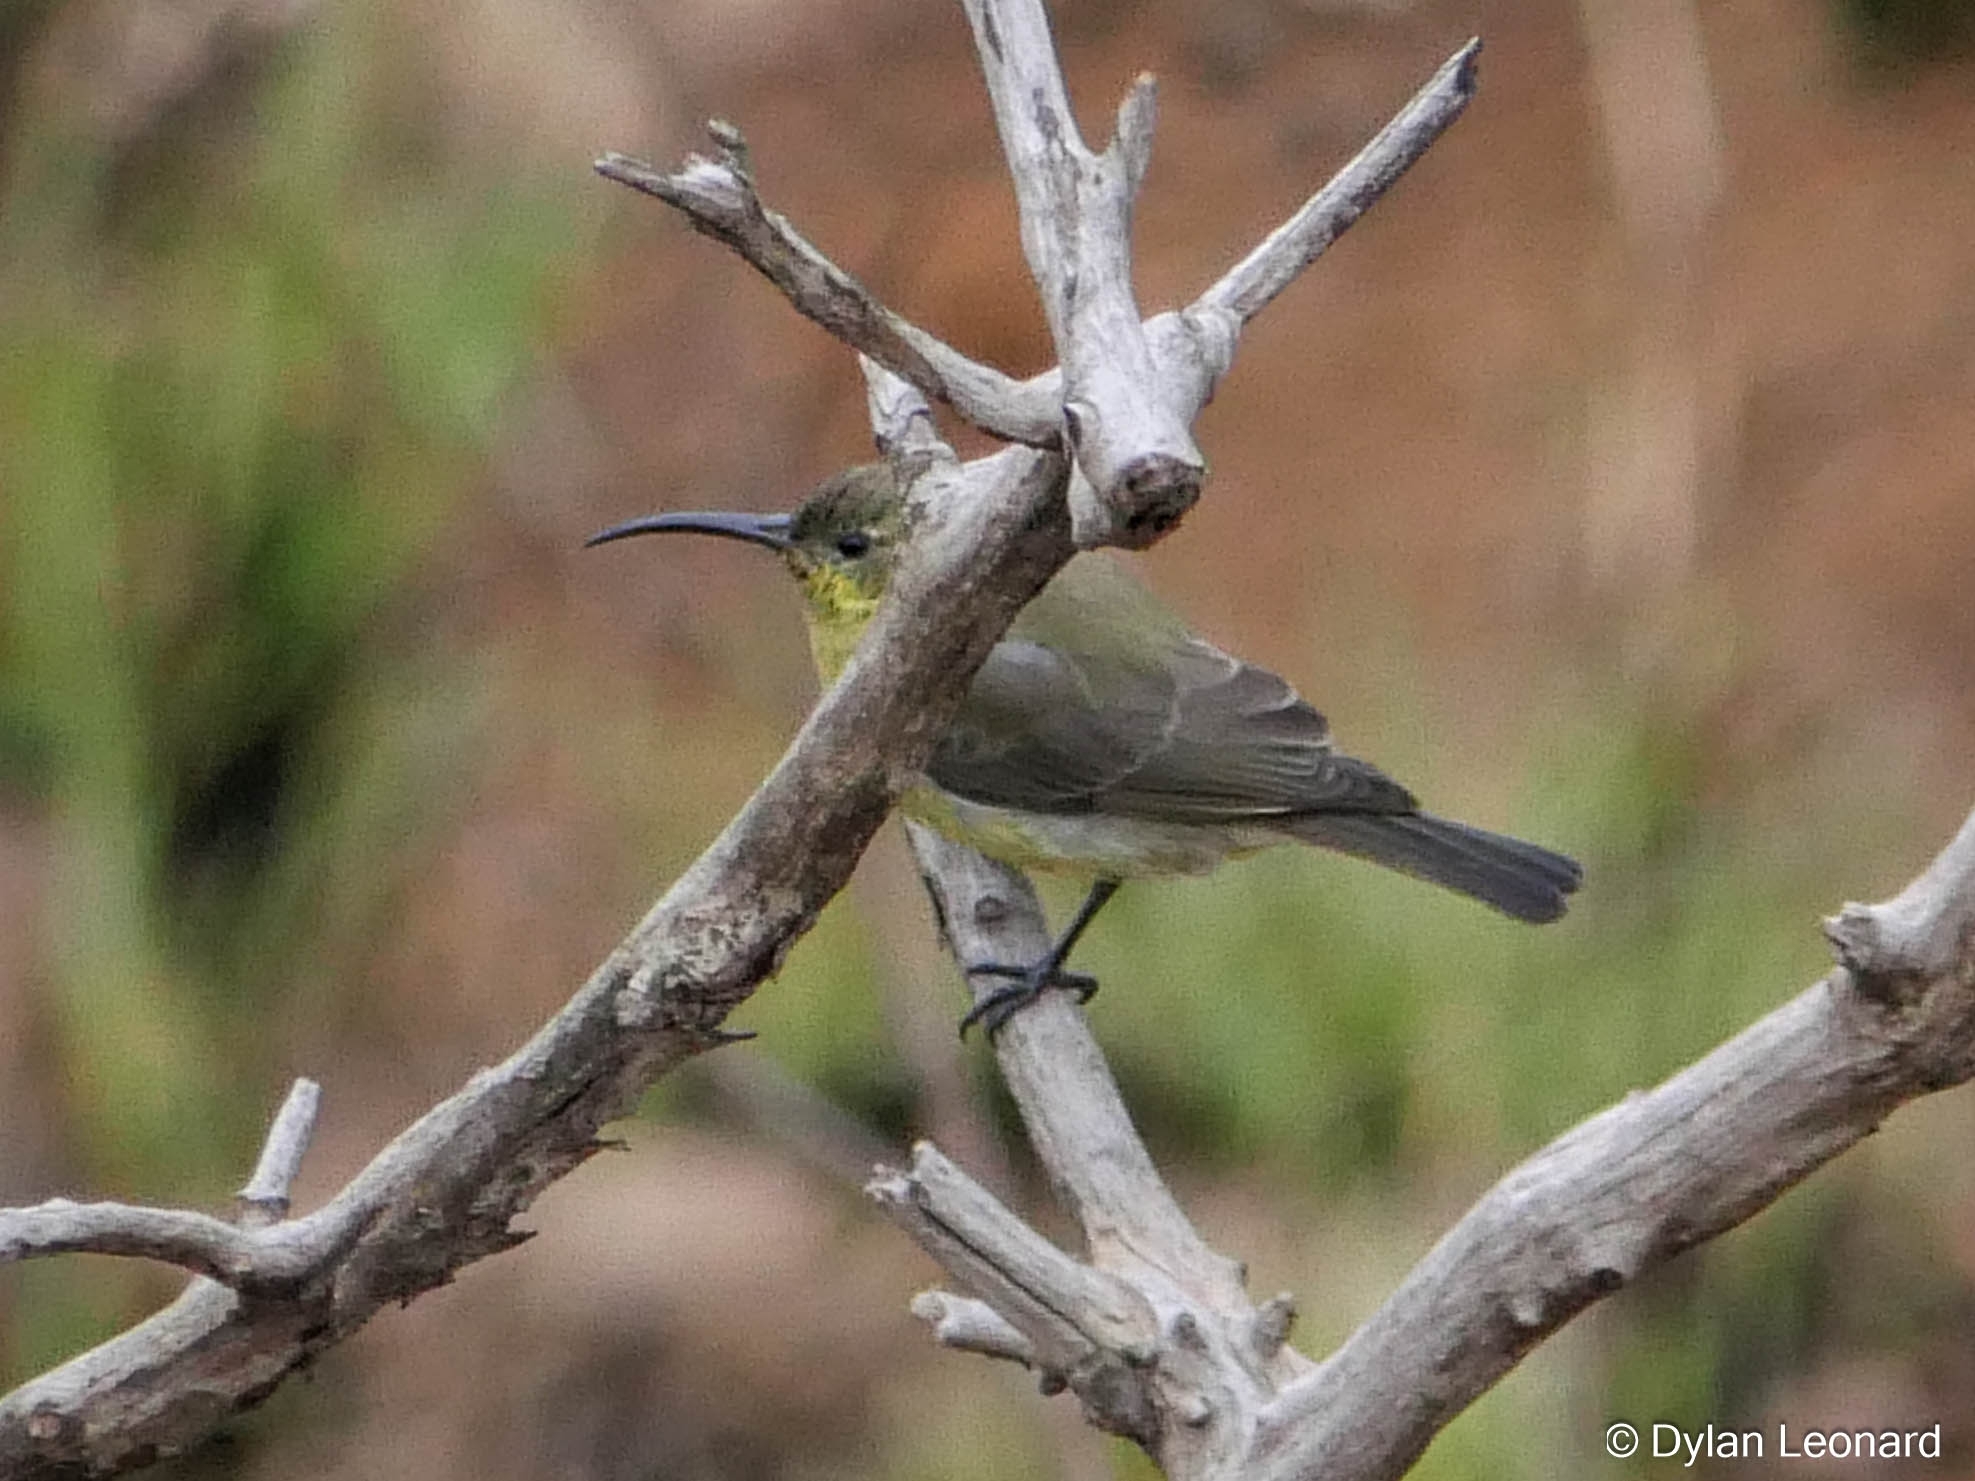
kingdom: Animalia
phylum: Chordata
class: Aves
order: Passeriformes
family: Nectariniidae
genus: Nectarinia
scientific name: Nectarinia famosa
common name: Malachite sunbird
